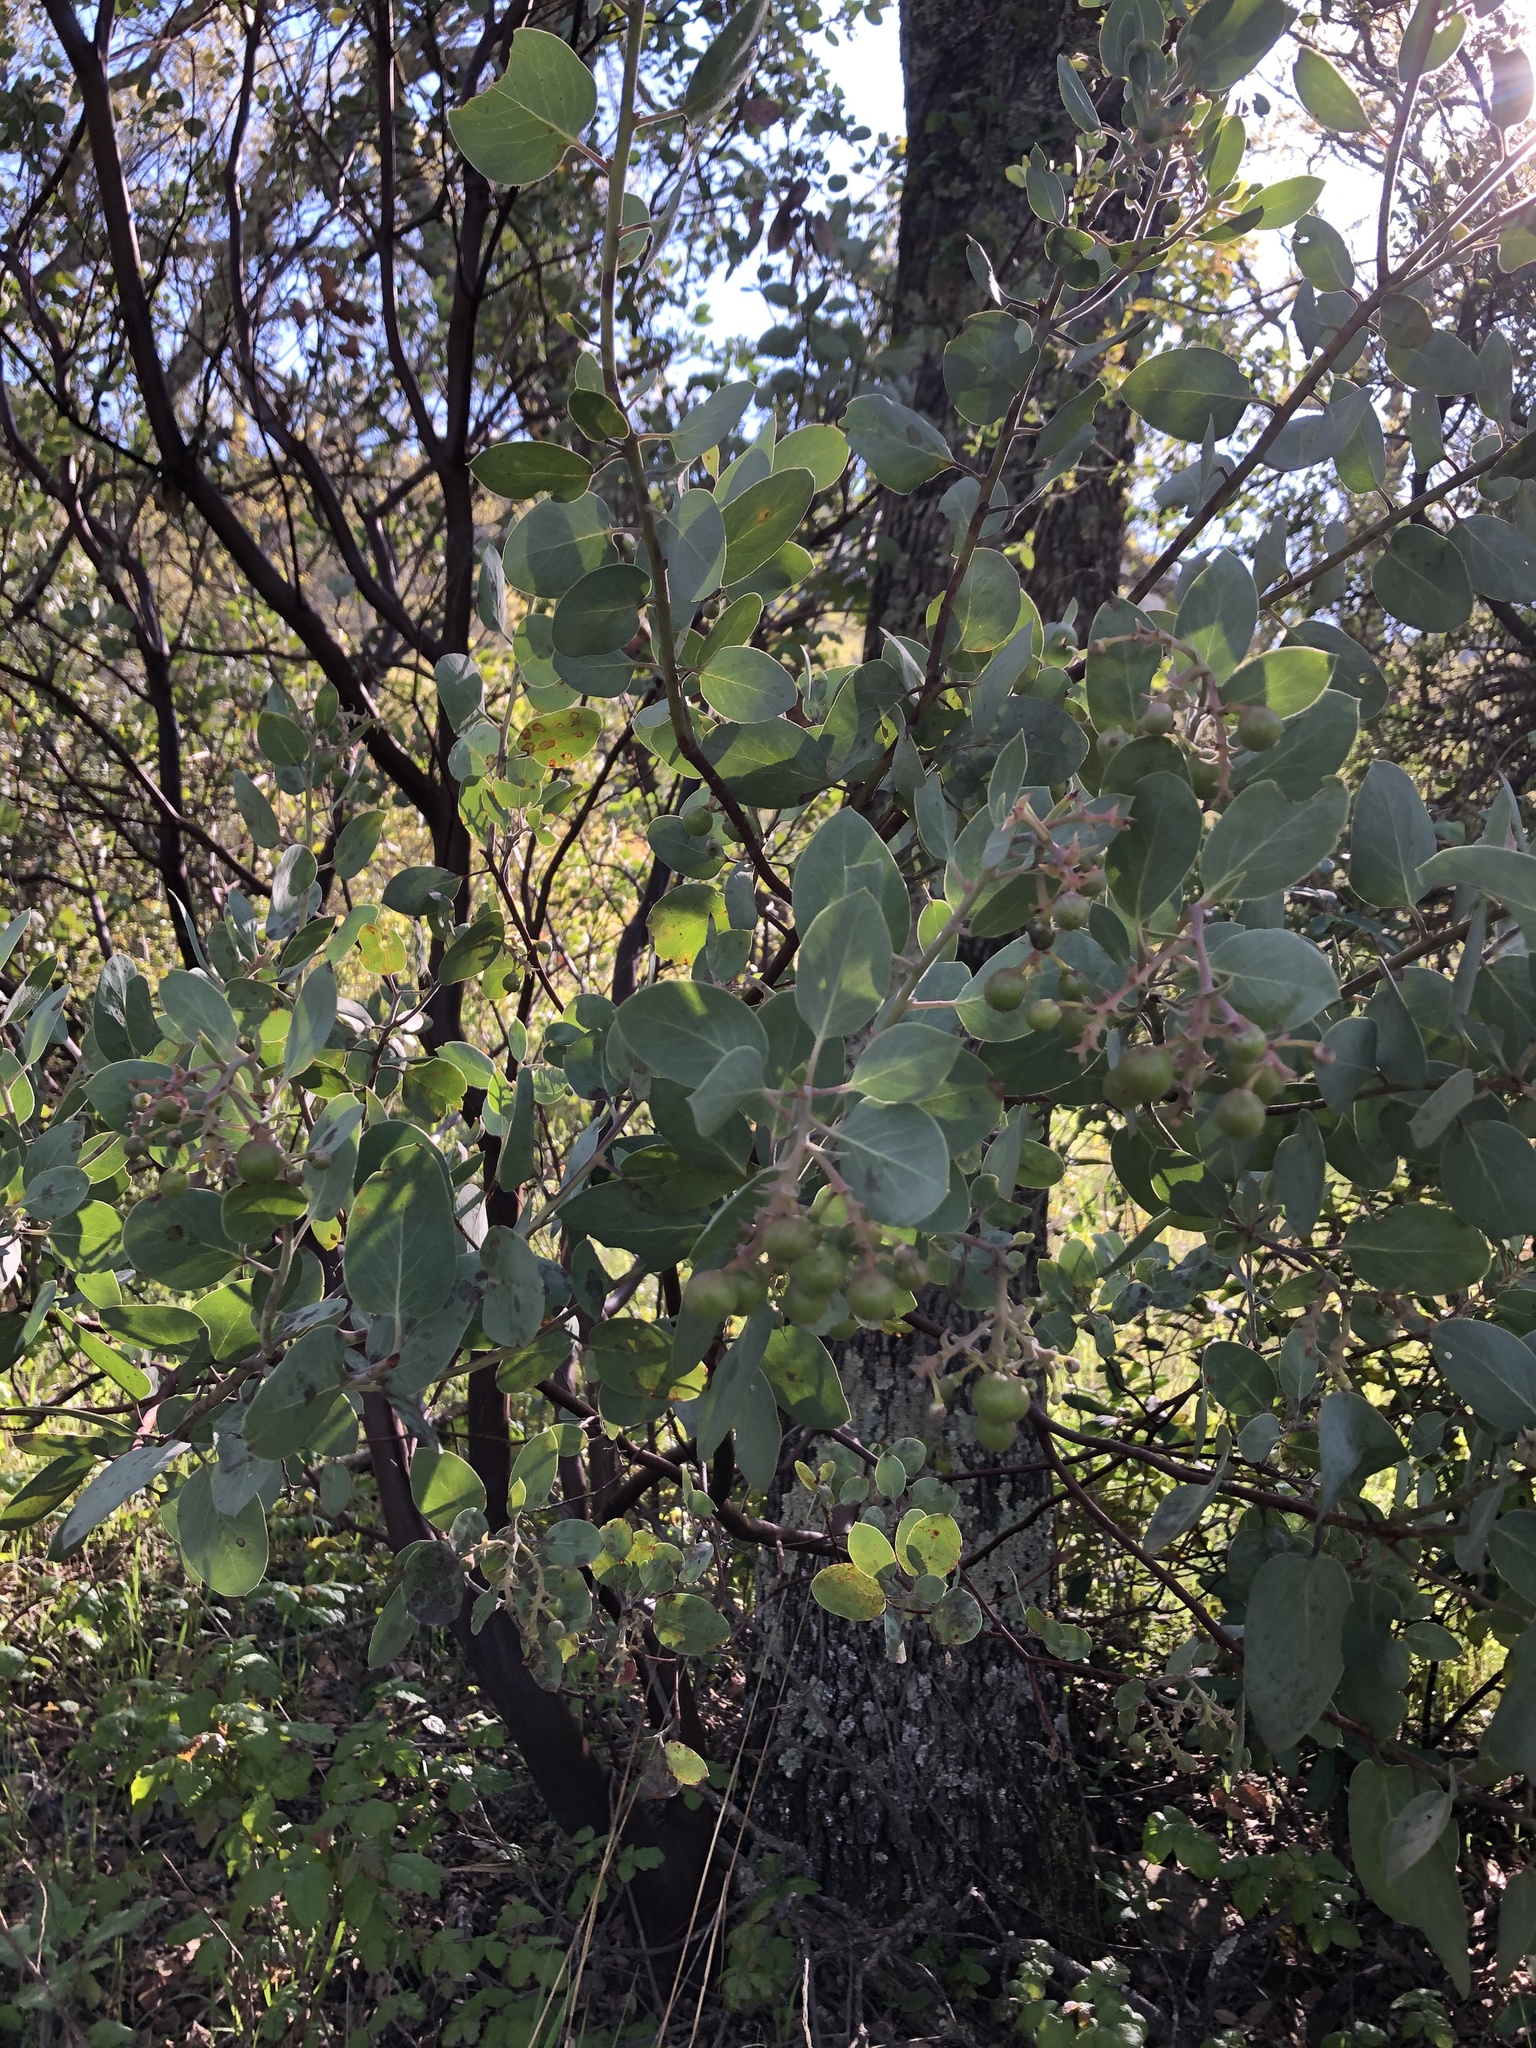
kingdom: Plantae
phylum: Tracheophyta
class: Magnoliopsida
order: Ericales
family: Ericaceae
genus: Arctostaphylos
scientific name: Arctostaphylos glauca
